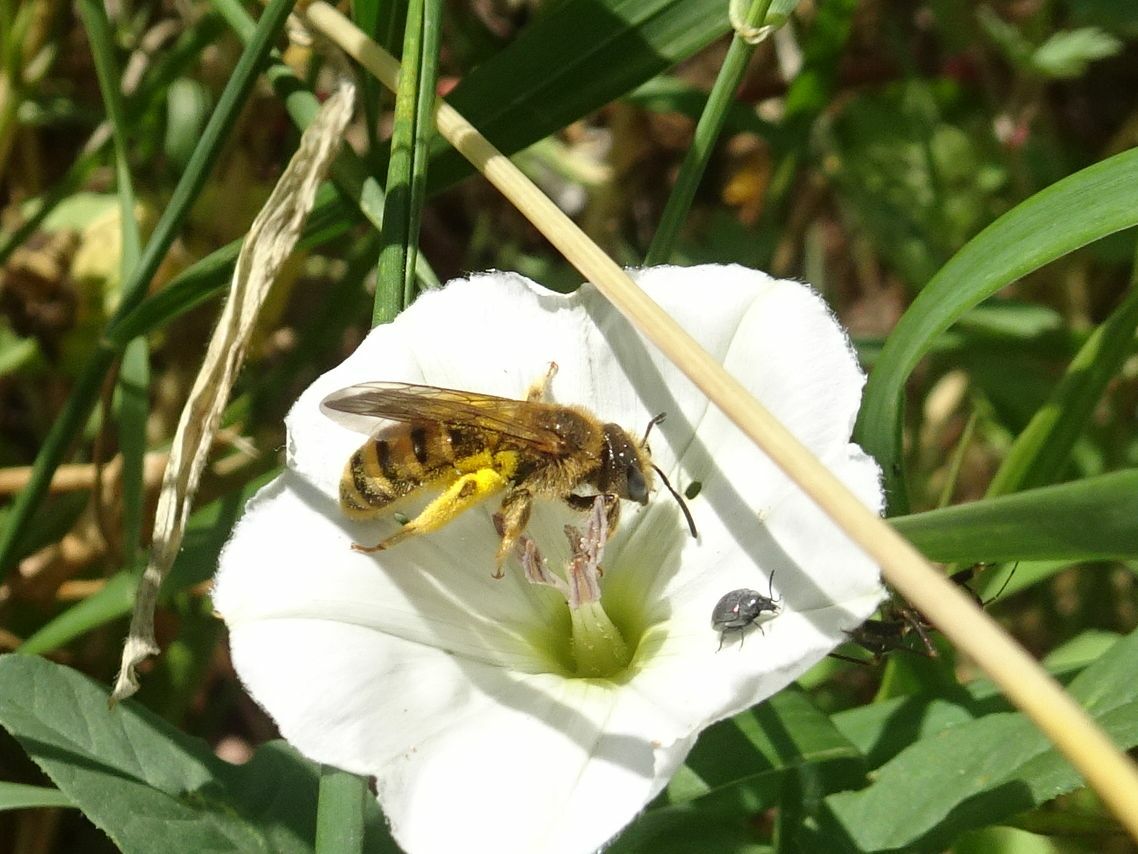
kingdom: Animalia
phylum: Arthropoda
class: Insecta
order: Hymenoptera
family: Halictidae
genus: Halictus
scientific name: Halictus scabiosae
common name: Great banded furrow bee
